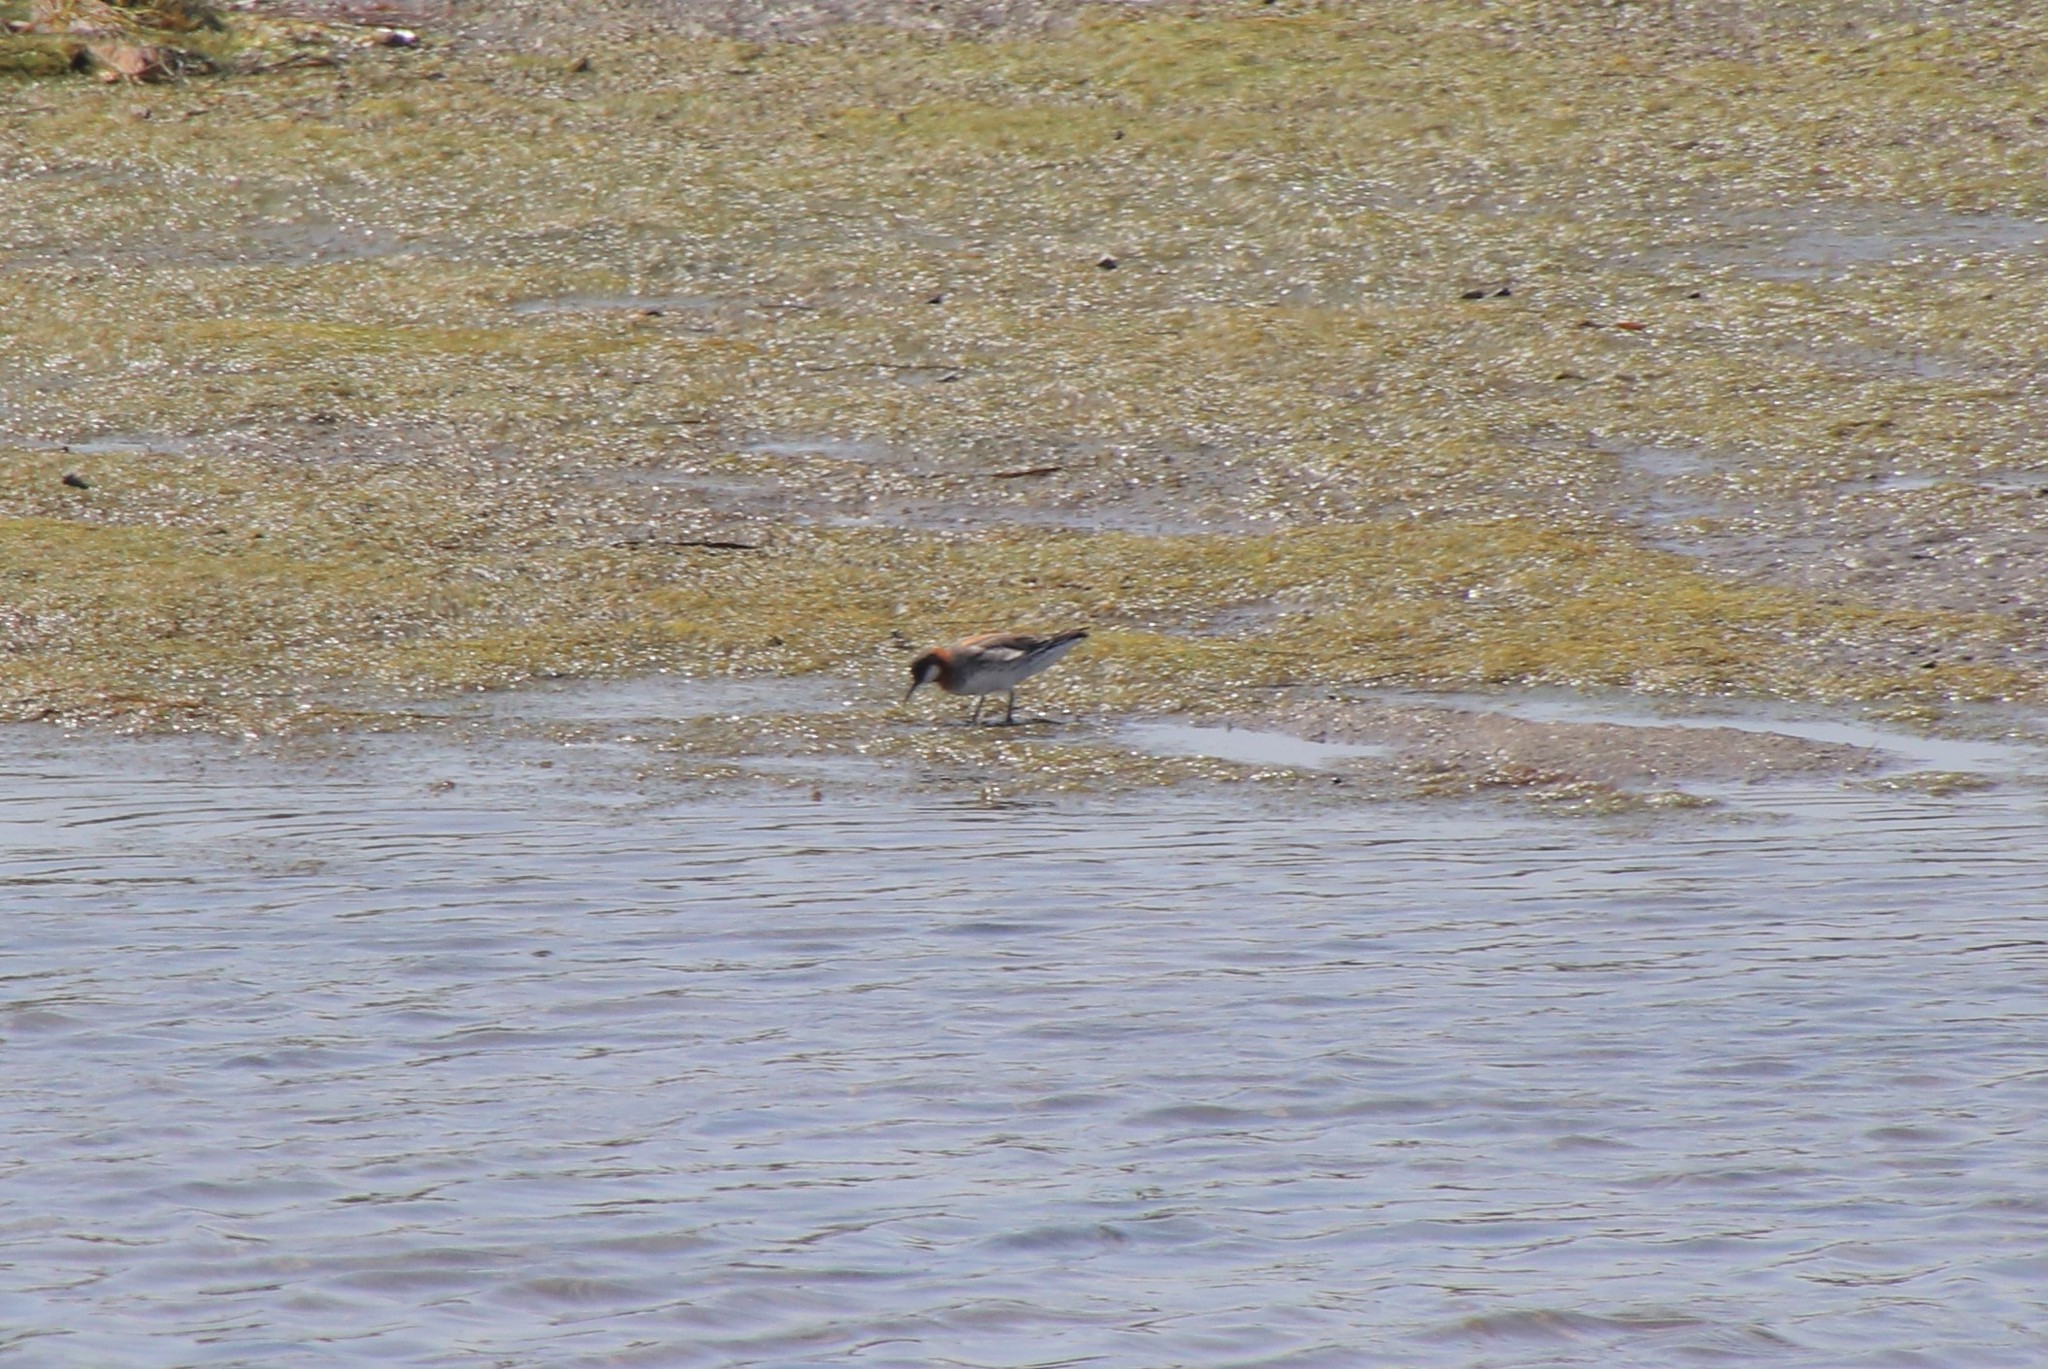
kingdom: Animalia
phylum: Chordata
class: Aves
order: Charadriiformes
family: Scolopacidae
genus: Phalaropus
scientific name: Phalaropus lobatus
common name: Red-necked phalarope
